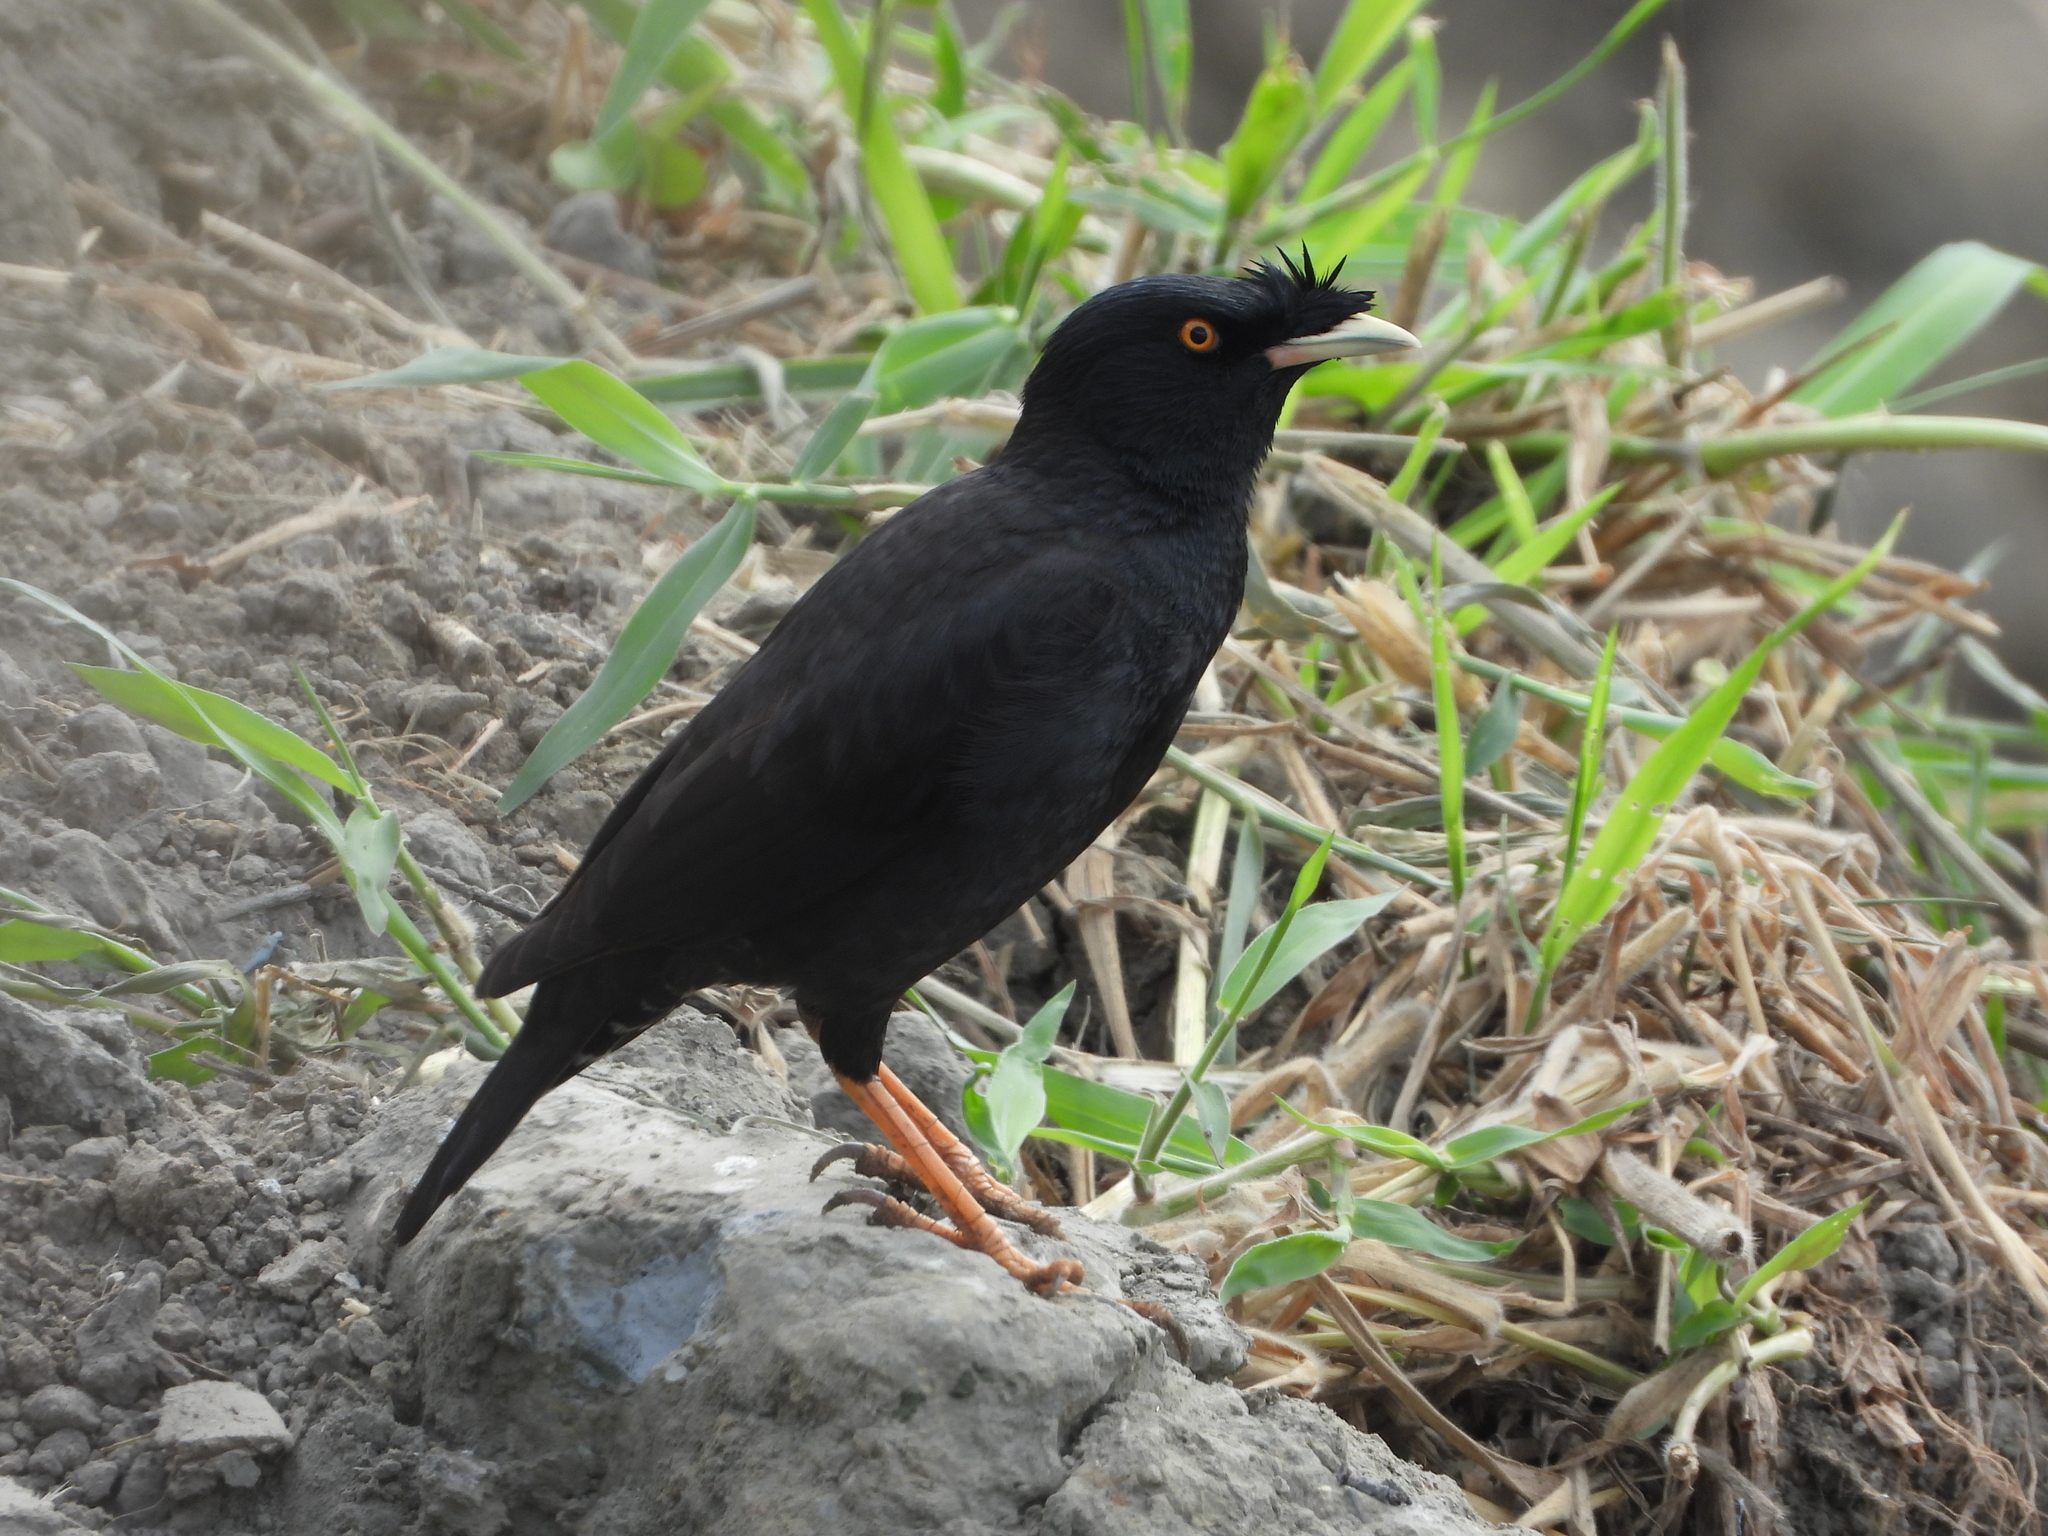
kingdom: Animalia
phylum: Chordata
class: Aves
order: Passeriformes
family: Sturnidae
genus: Acridotheres
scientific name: Acridotheres cristatellus
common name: Crested myna
